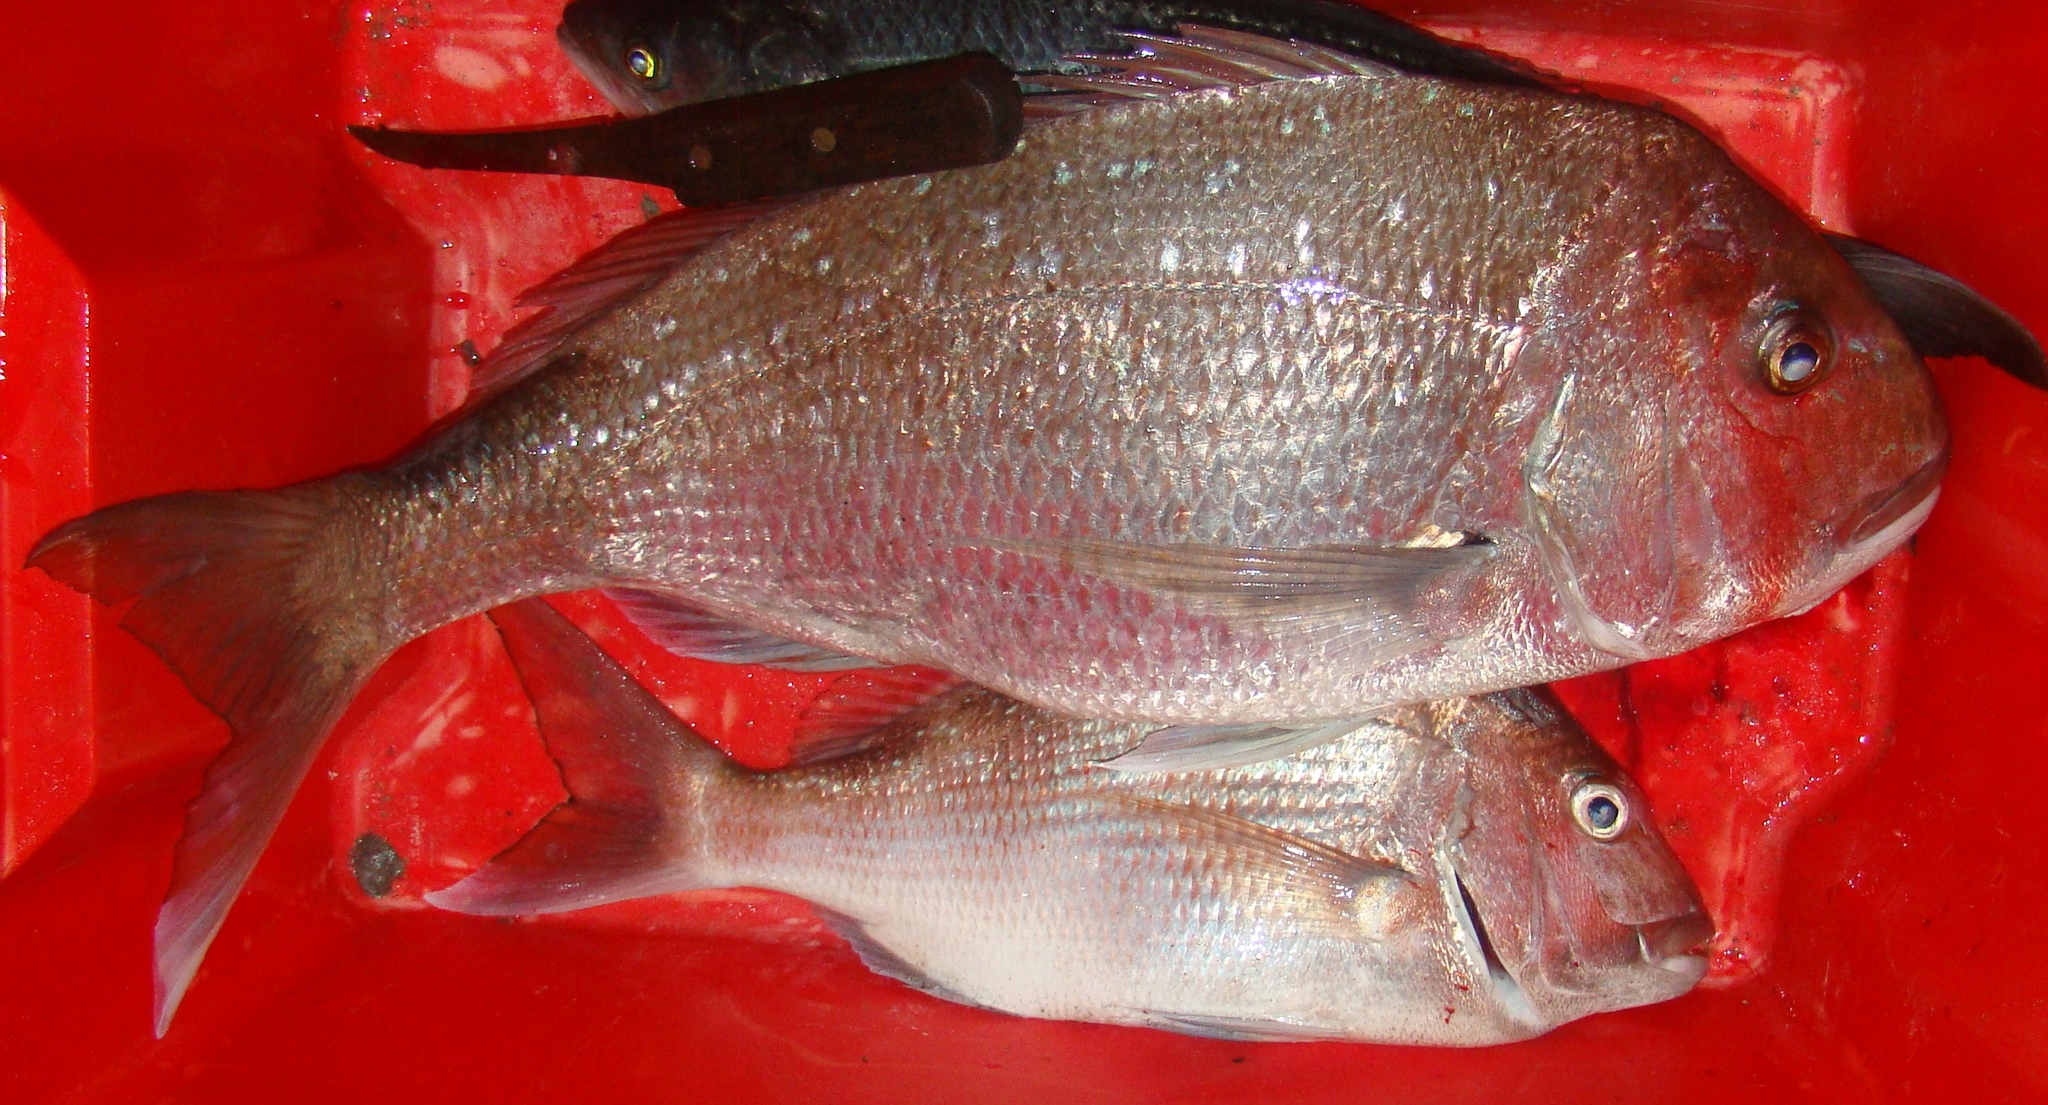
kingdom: Animalia
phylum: Chordata
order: Perciformes
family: Sparidae
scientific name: Sparidae
